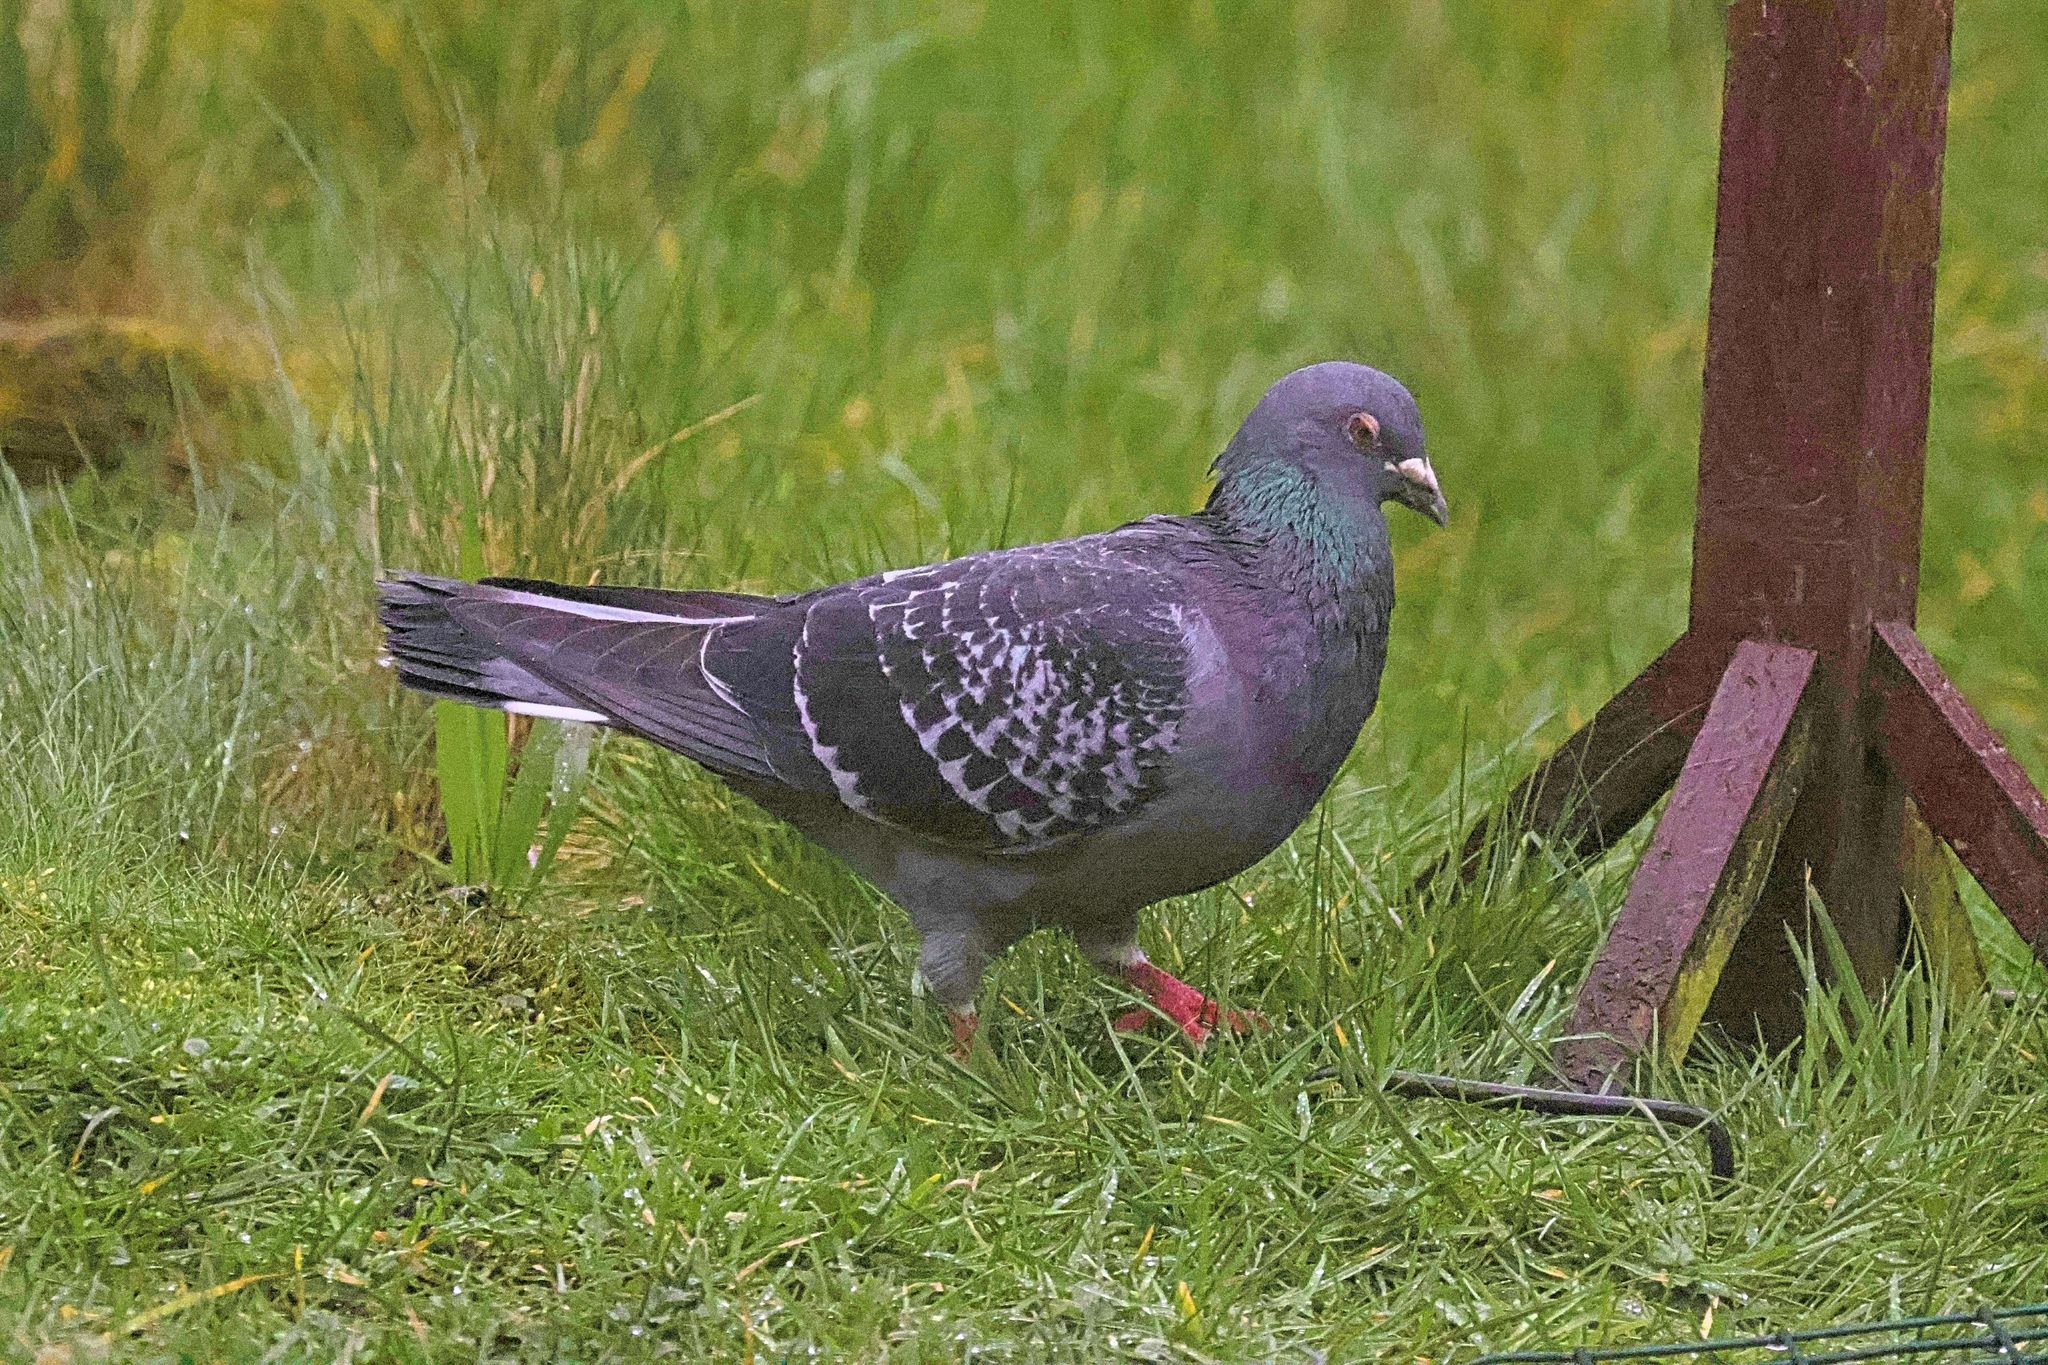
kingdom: Animalia
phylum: Chordata
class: Aves
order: Columbiformes
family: Columbidae
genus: Columba
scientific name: Columba livia
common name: Rock pigeon
